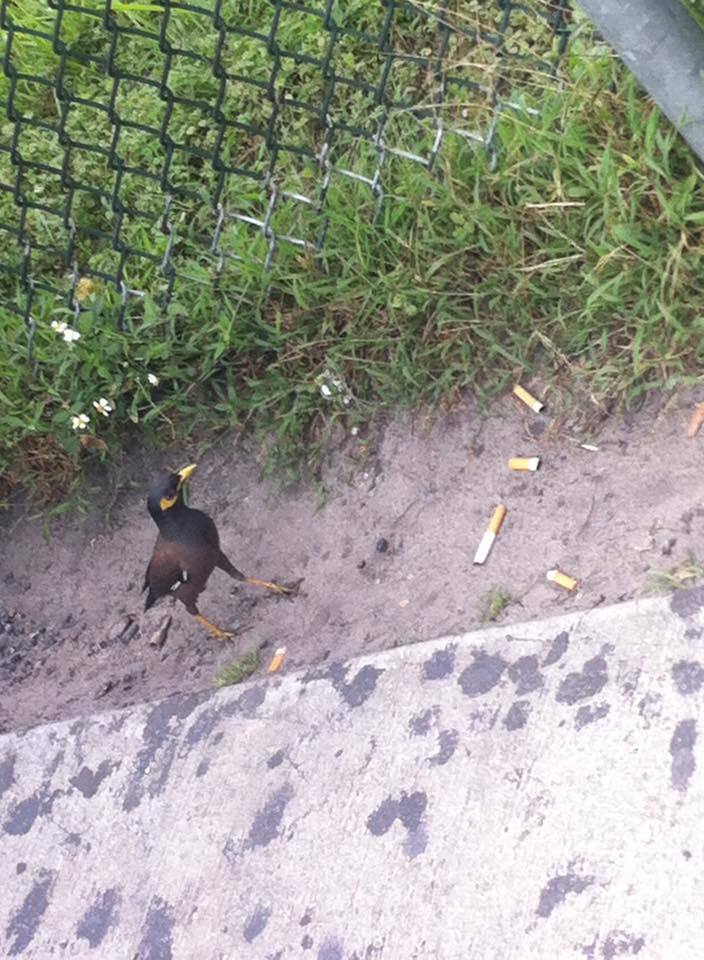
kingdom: Animalia
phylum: Chordata
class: Aves
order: Passeriformes
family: Sturnidae
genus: Acridotheres
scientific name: Acridotheres tristis
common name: Common myna
